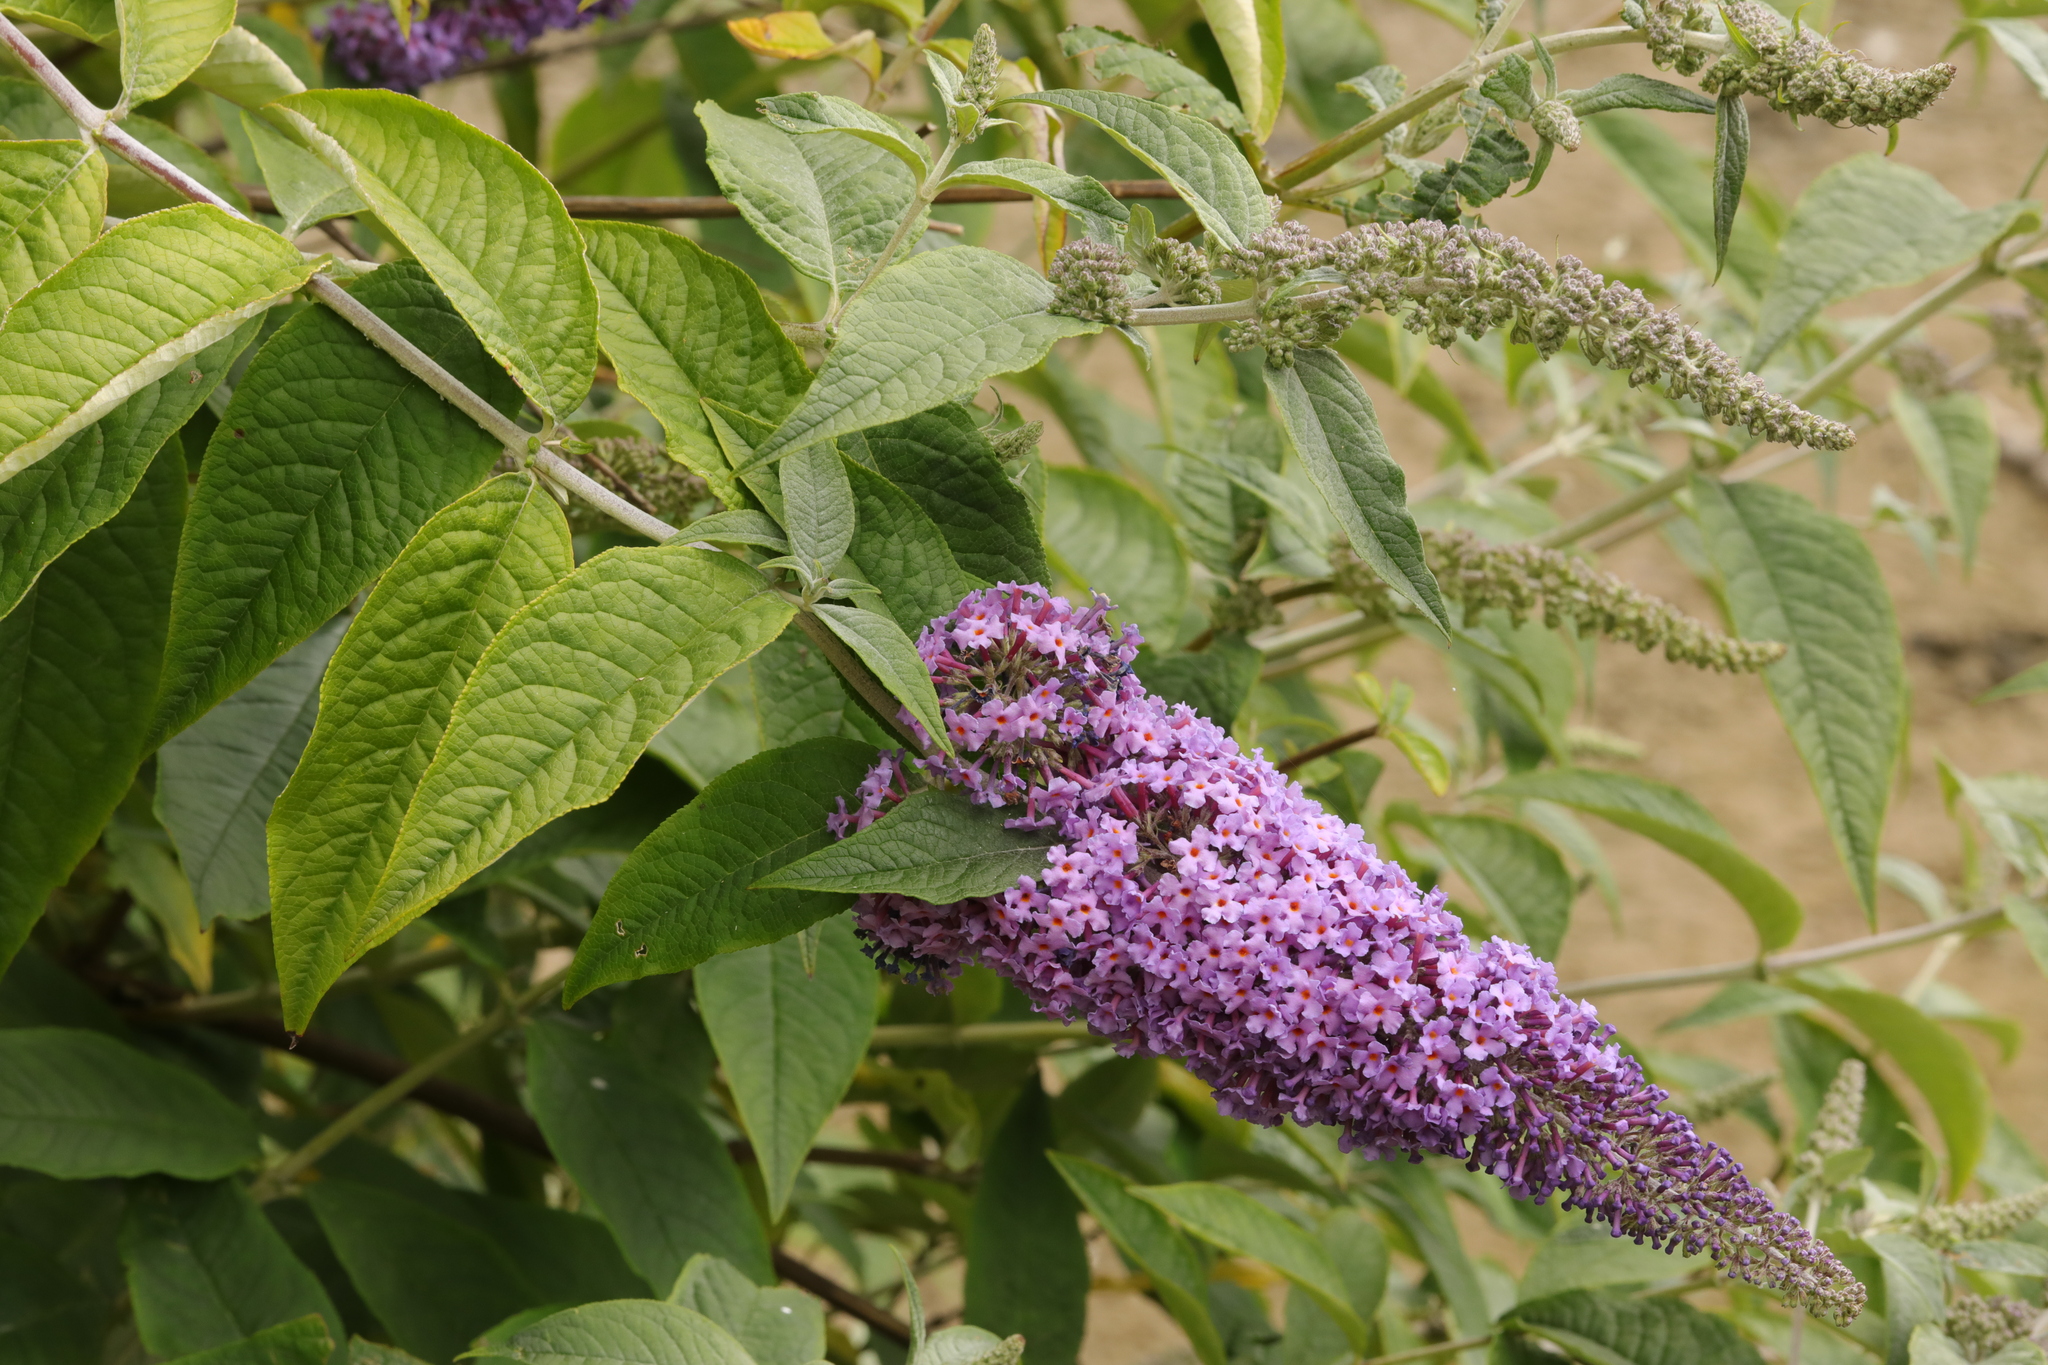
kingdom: Plantae
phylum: Tracheophyta
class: Magnoliopsida
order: Lamiales
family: Scrophulariaceae
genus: Buddleja
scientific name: Buddleja davidii
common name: Butterfly-bush
